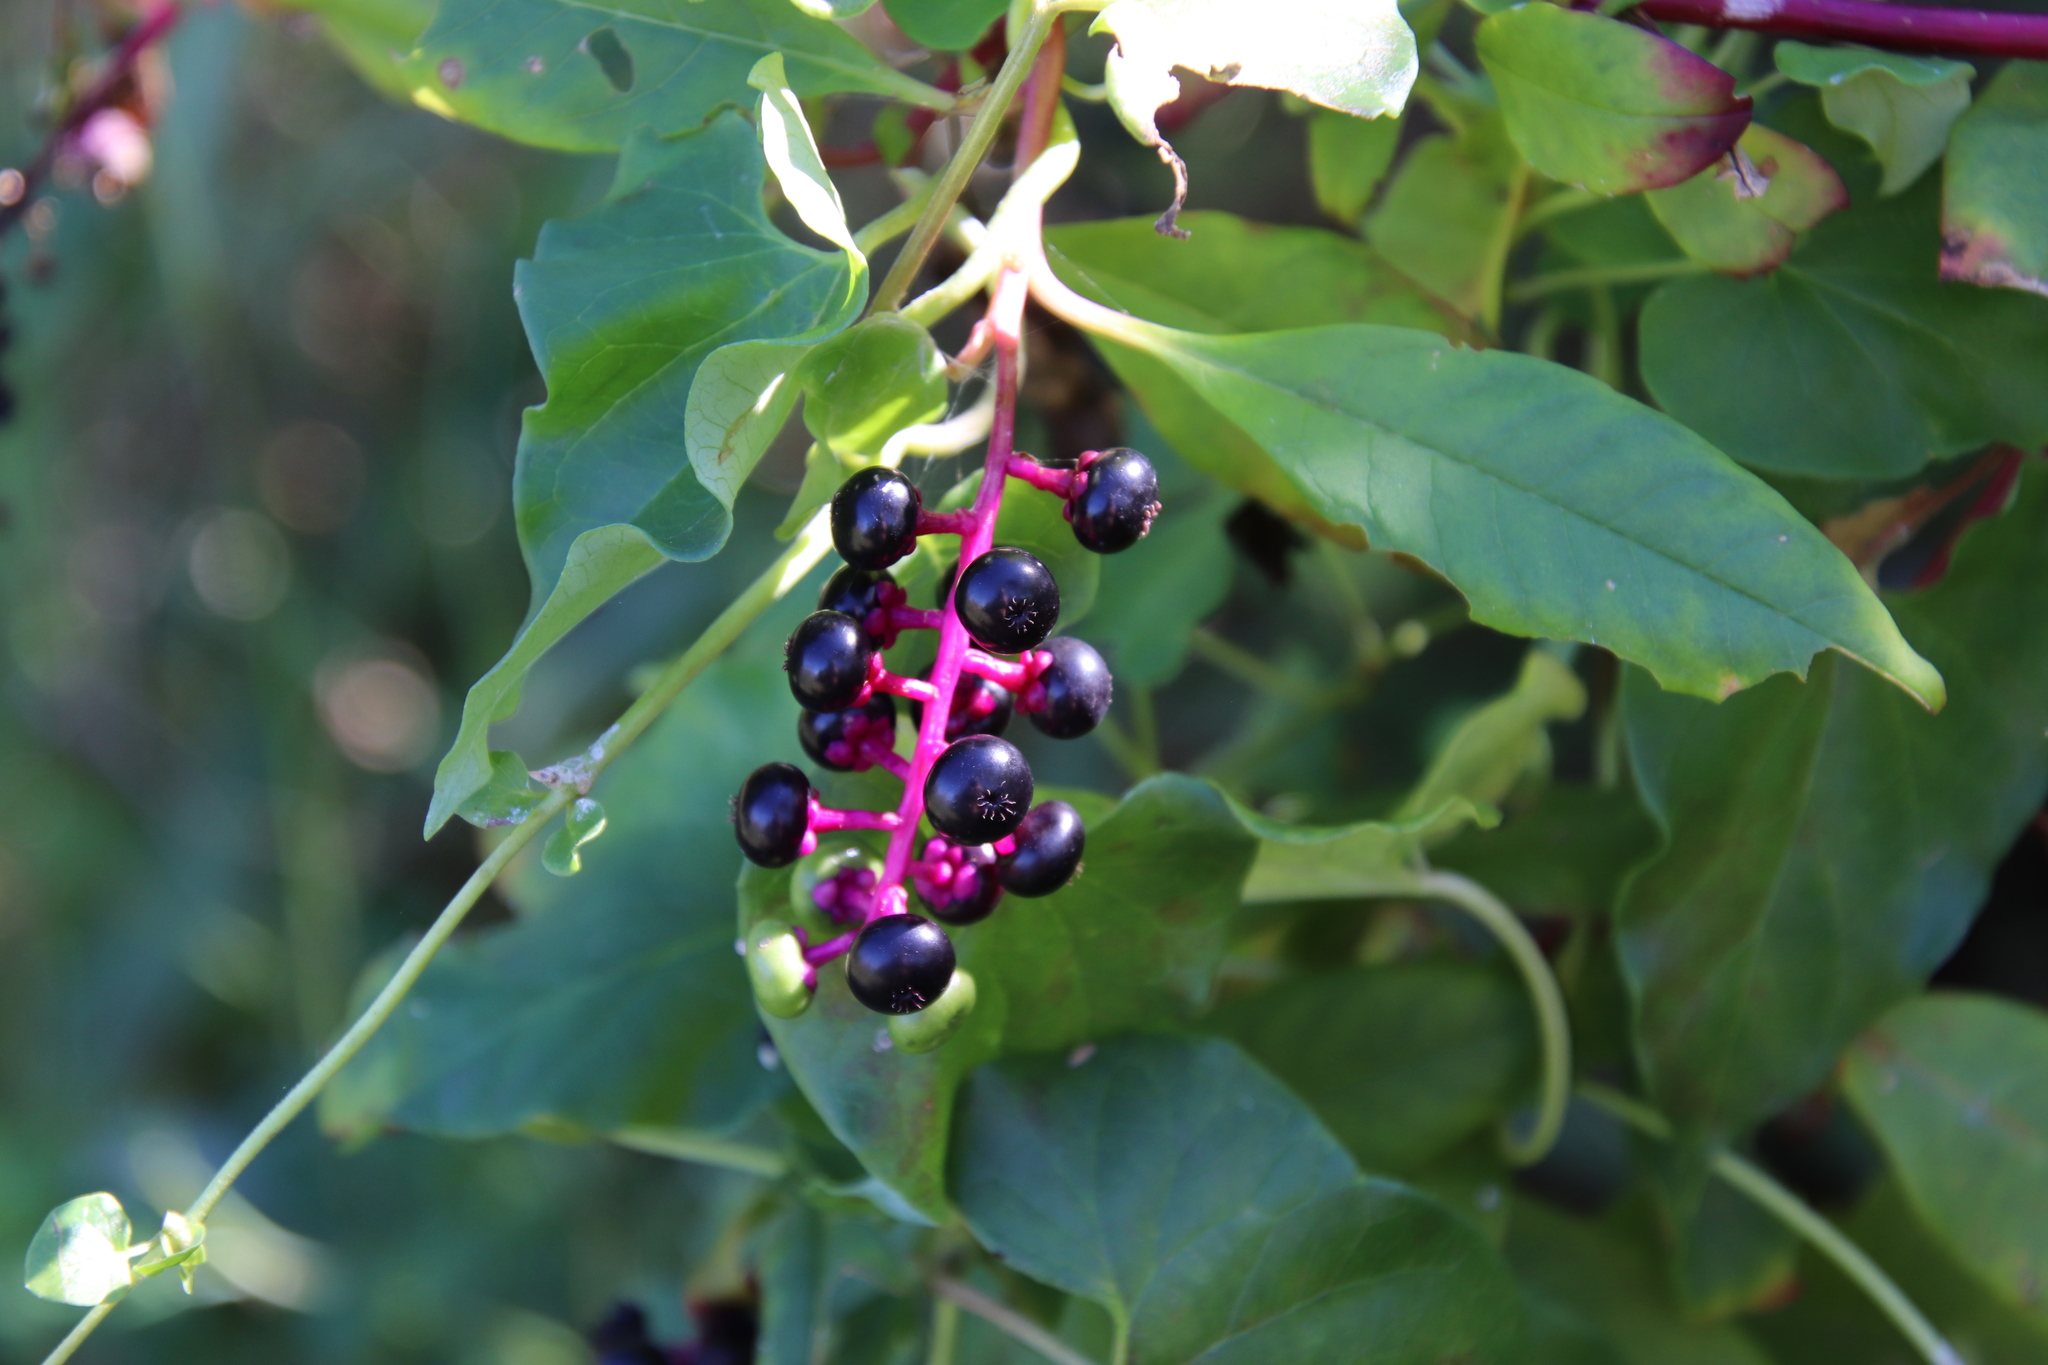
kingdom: Plantae
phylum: Tracheophyta
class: Magnoliopsida
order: Caryophyllales
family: Phytolaccaceae
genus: Phytolacca
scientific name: Phytolacca americana
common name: American pokeweed
